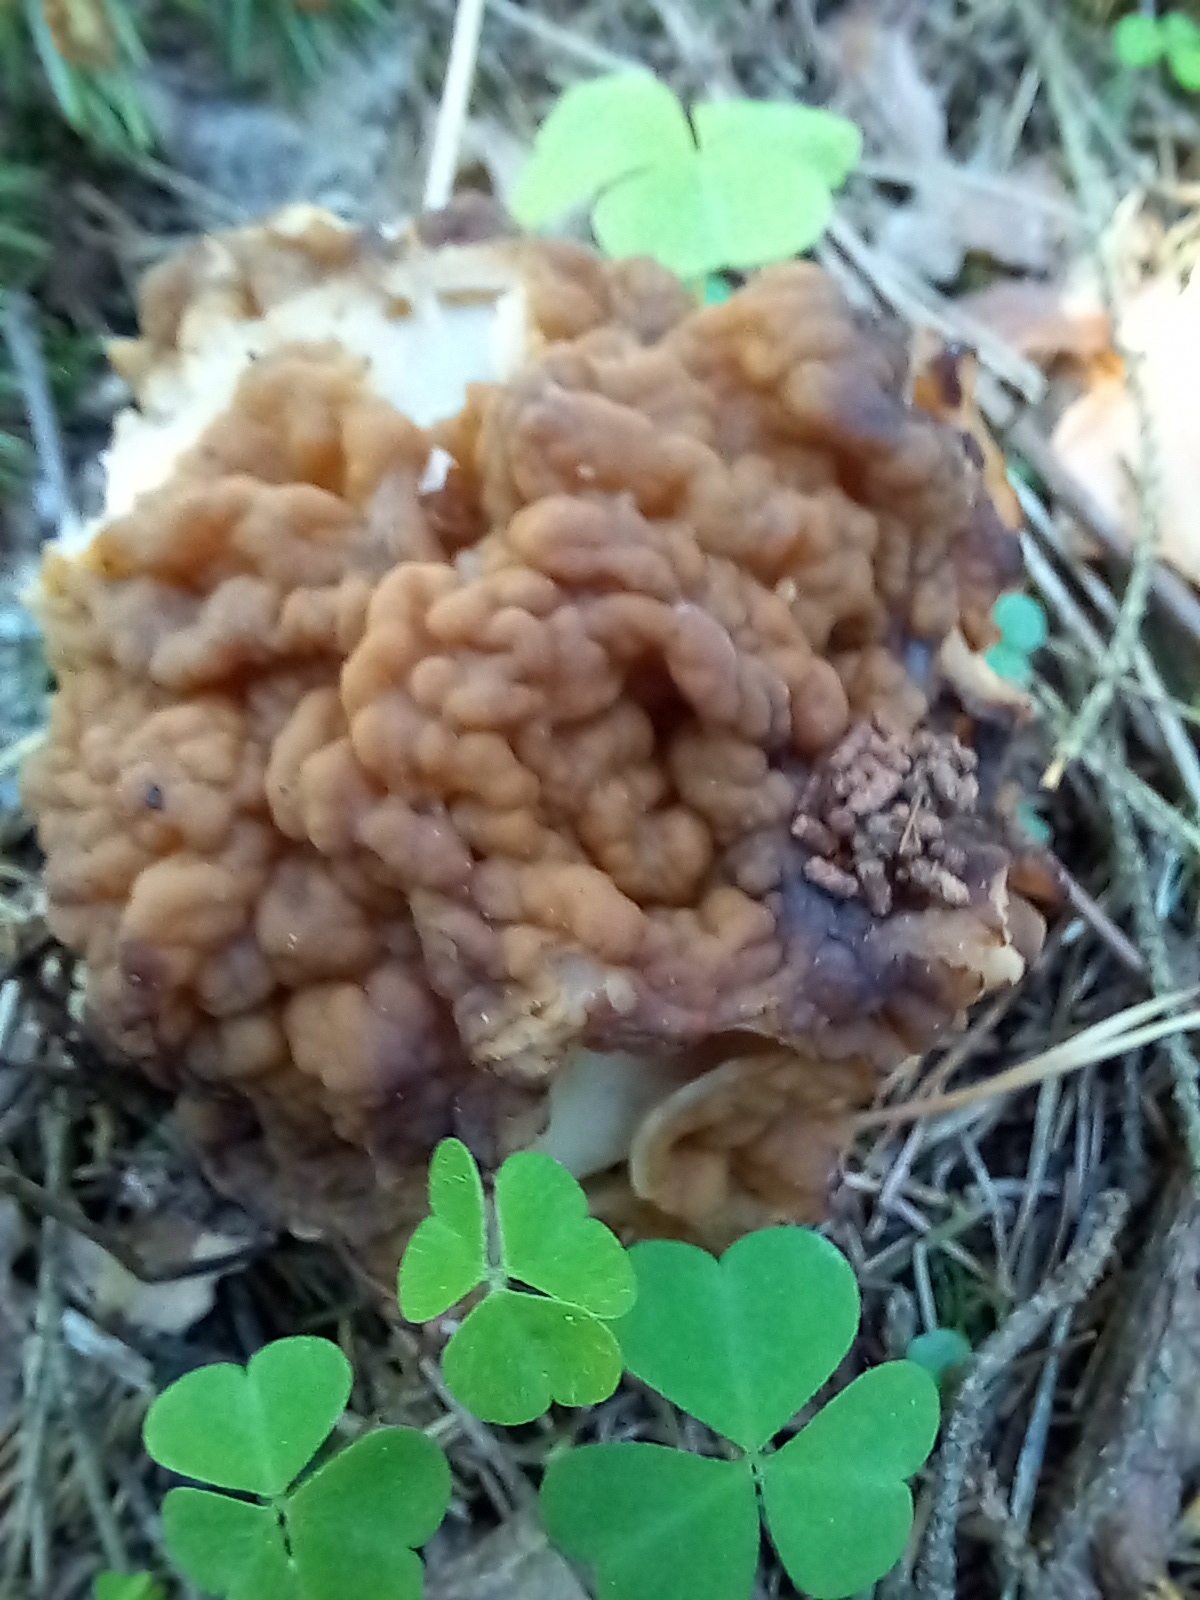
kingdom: Fungi
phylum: Ascomycota
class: Pezizomycetes
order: Pezizales
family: Discinaceae
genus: Gyromitra
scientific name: Gyromitra gigas
